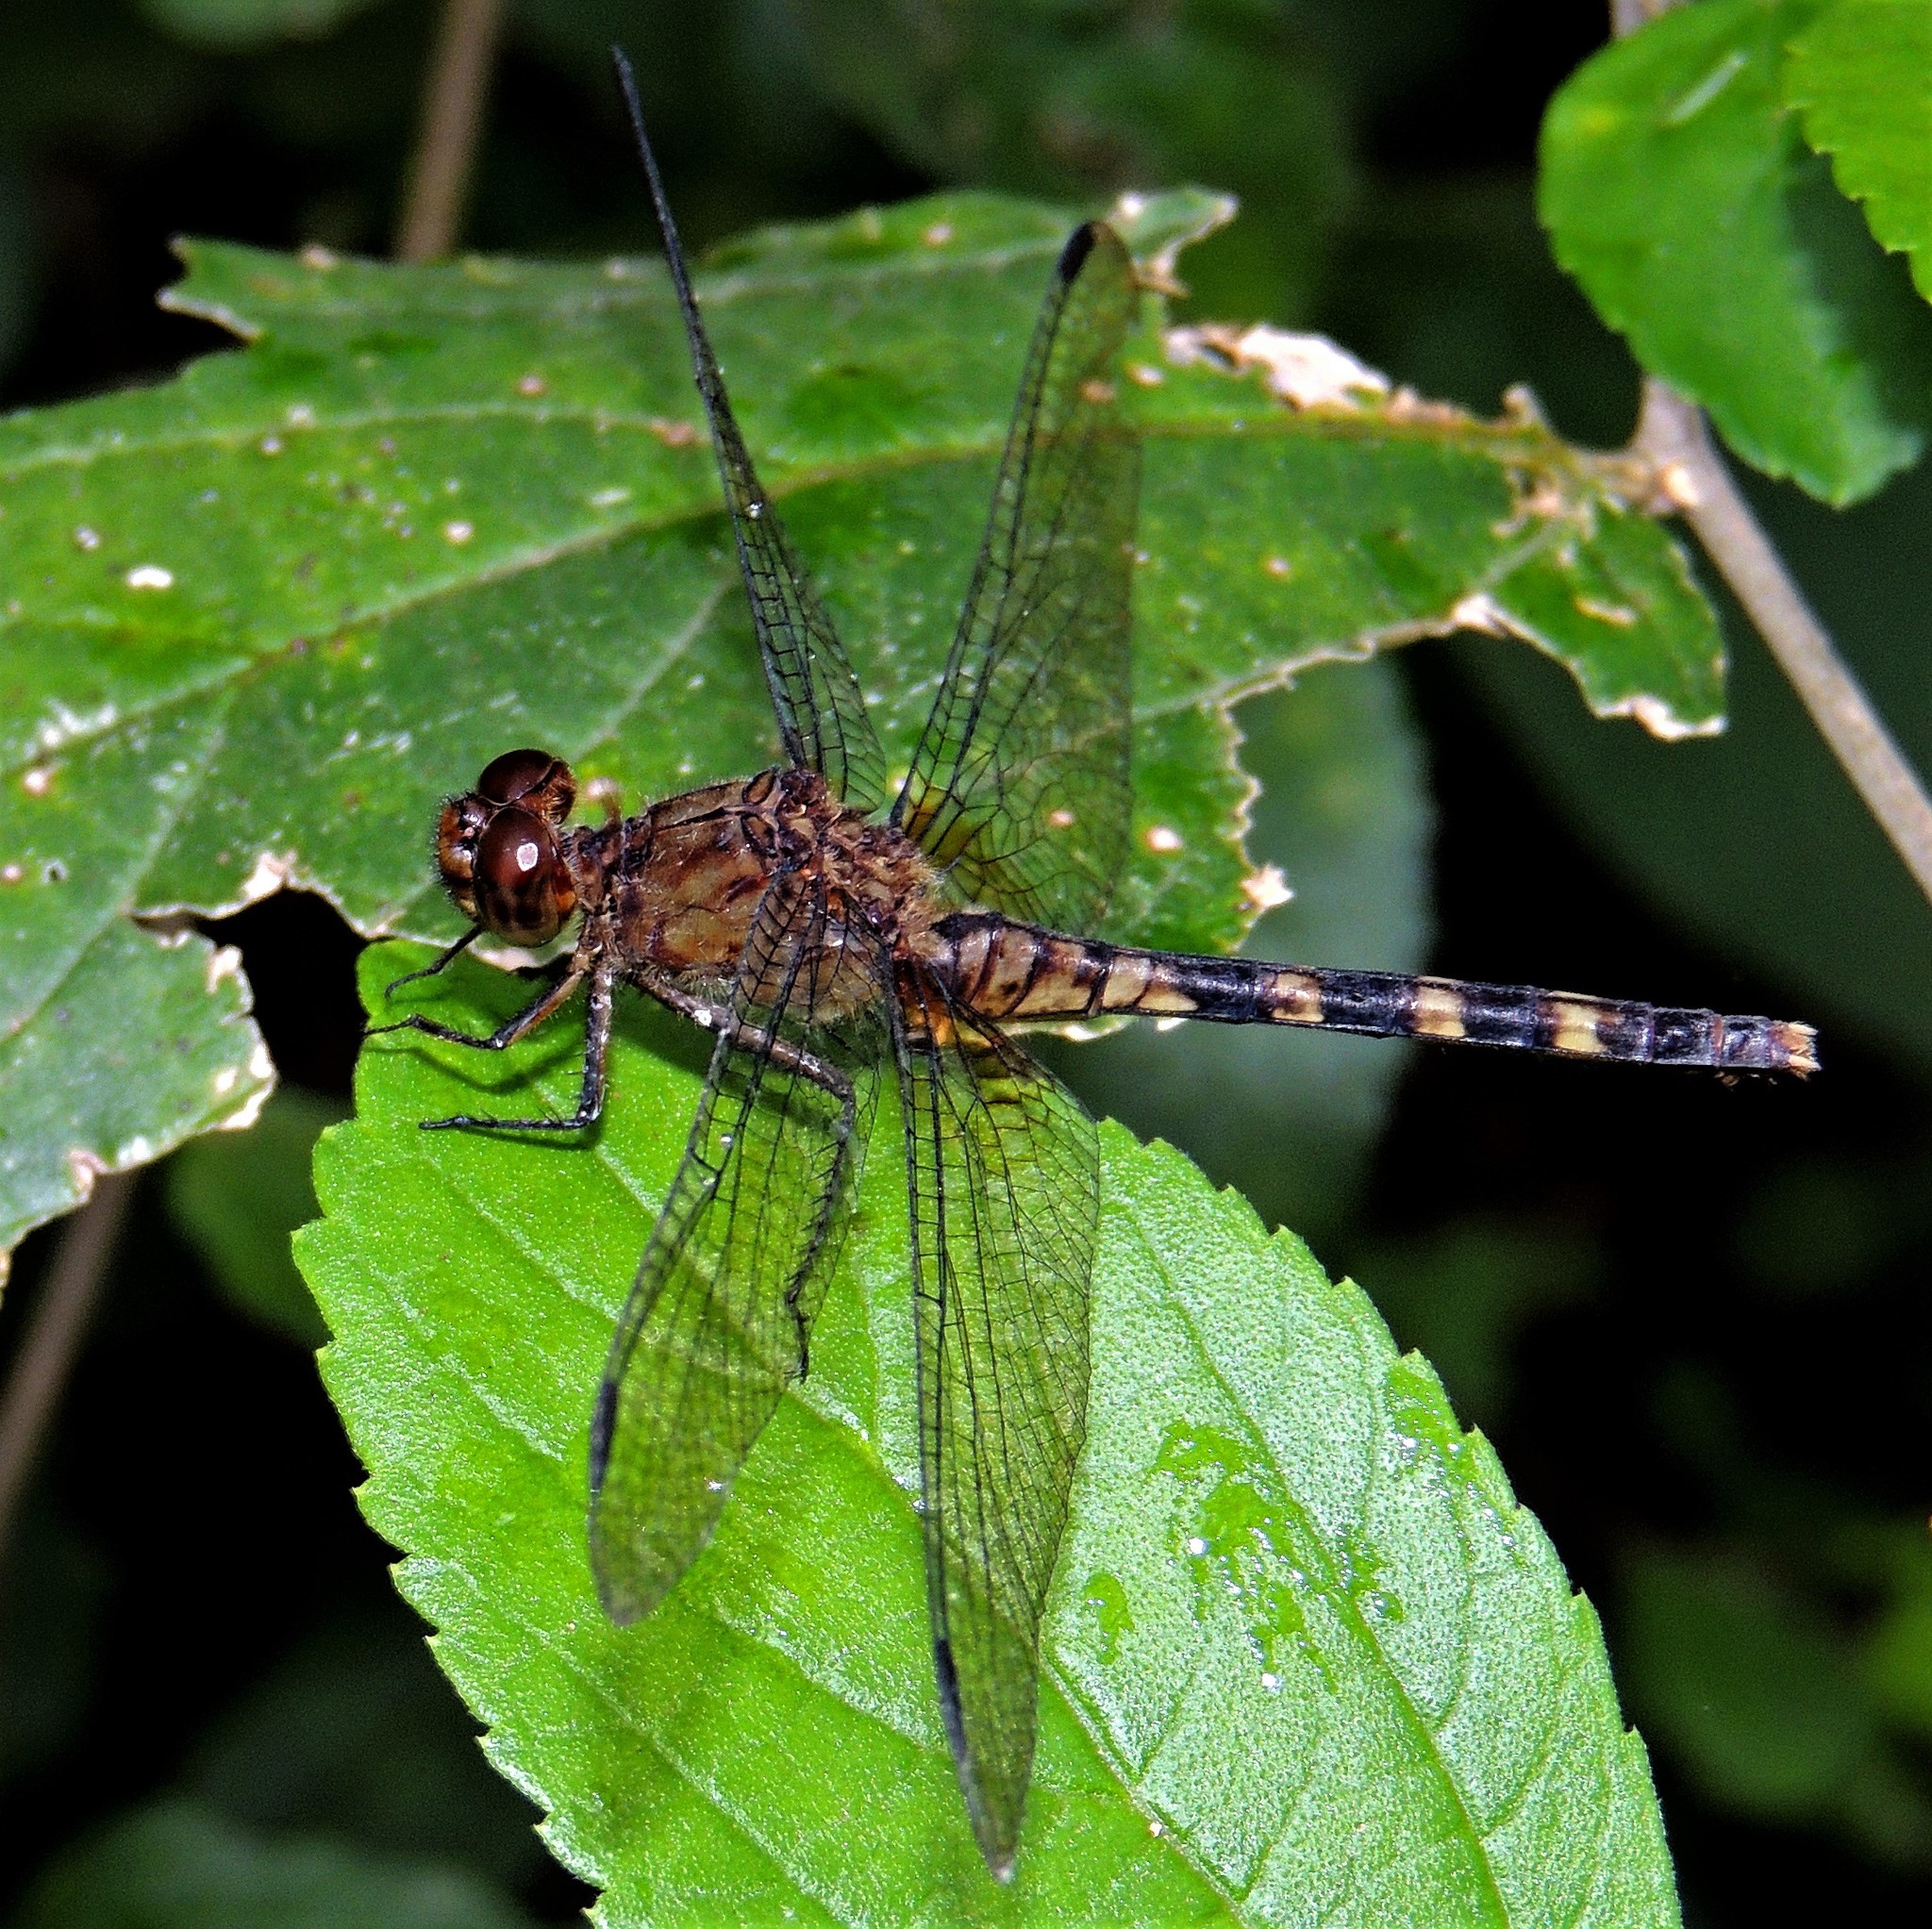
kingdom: Animalia
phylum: Arthropoda
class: Insecta
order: Odonata
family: Libellulidae
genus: Erythemis
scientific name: Erythemis plebeja
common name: Pin-tailed pondhawk
